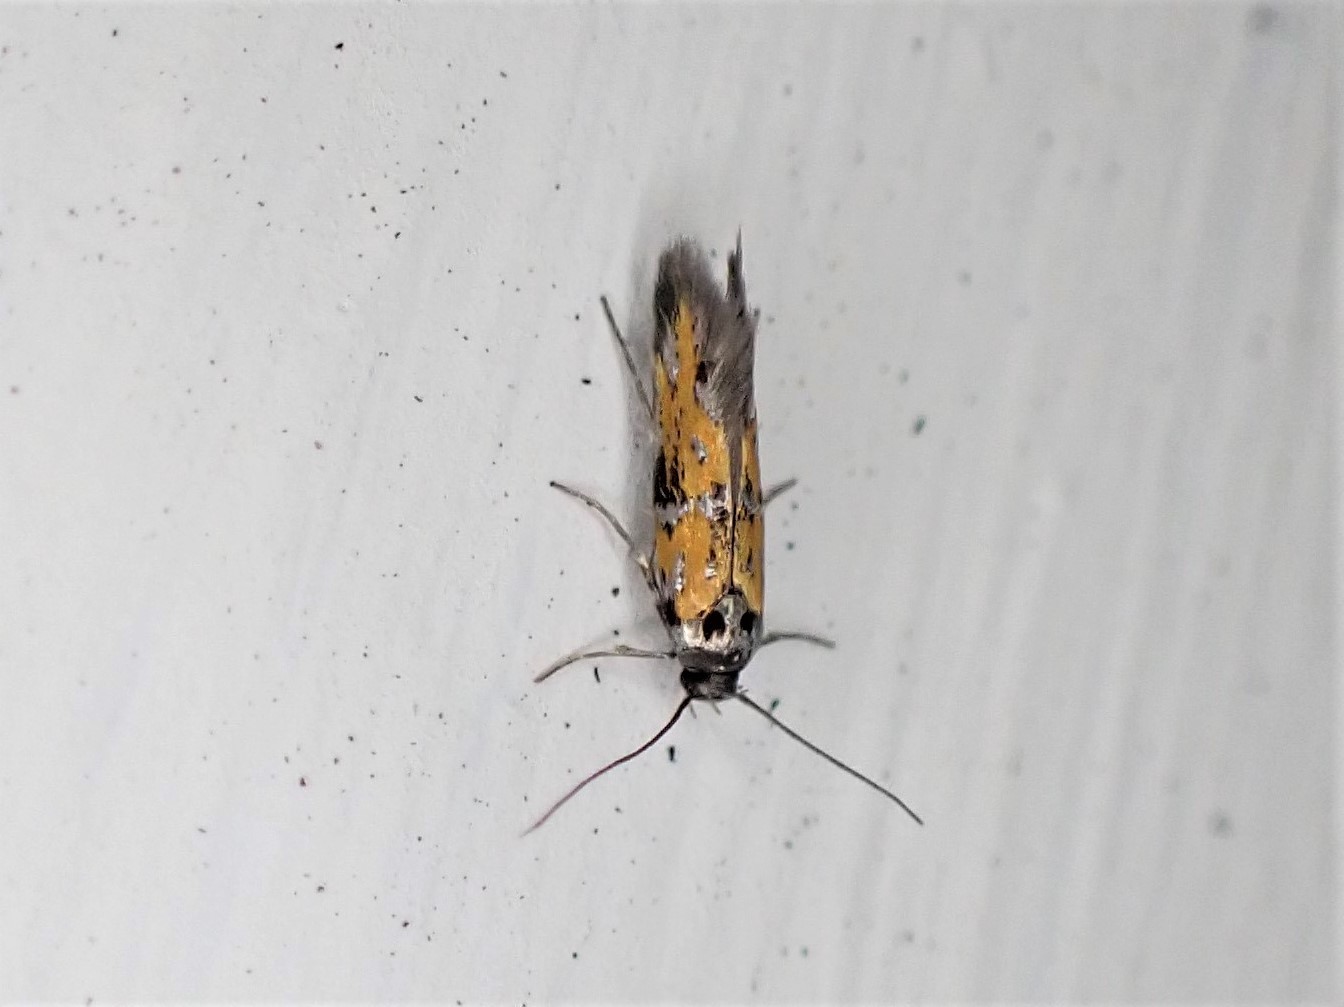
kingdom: Animalia
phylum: Arthropoda
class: Insecta
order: Lepidoptera
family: Gelechiidae
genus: Chrysoesthia
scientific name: Chrysoesthia drurella
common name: Flame neb
